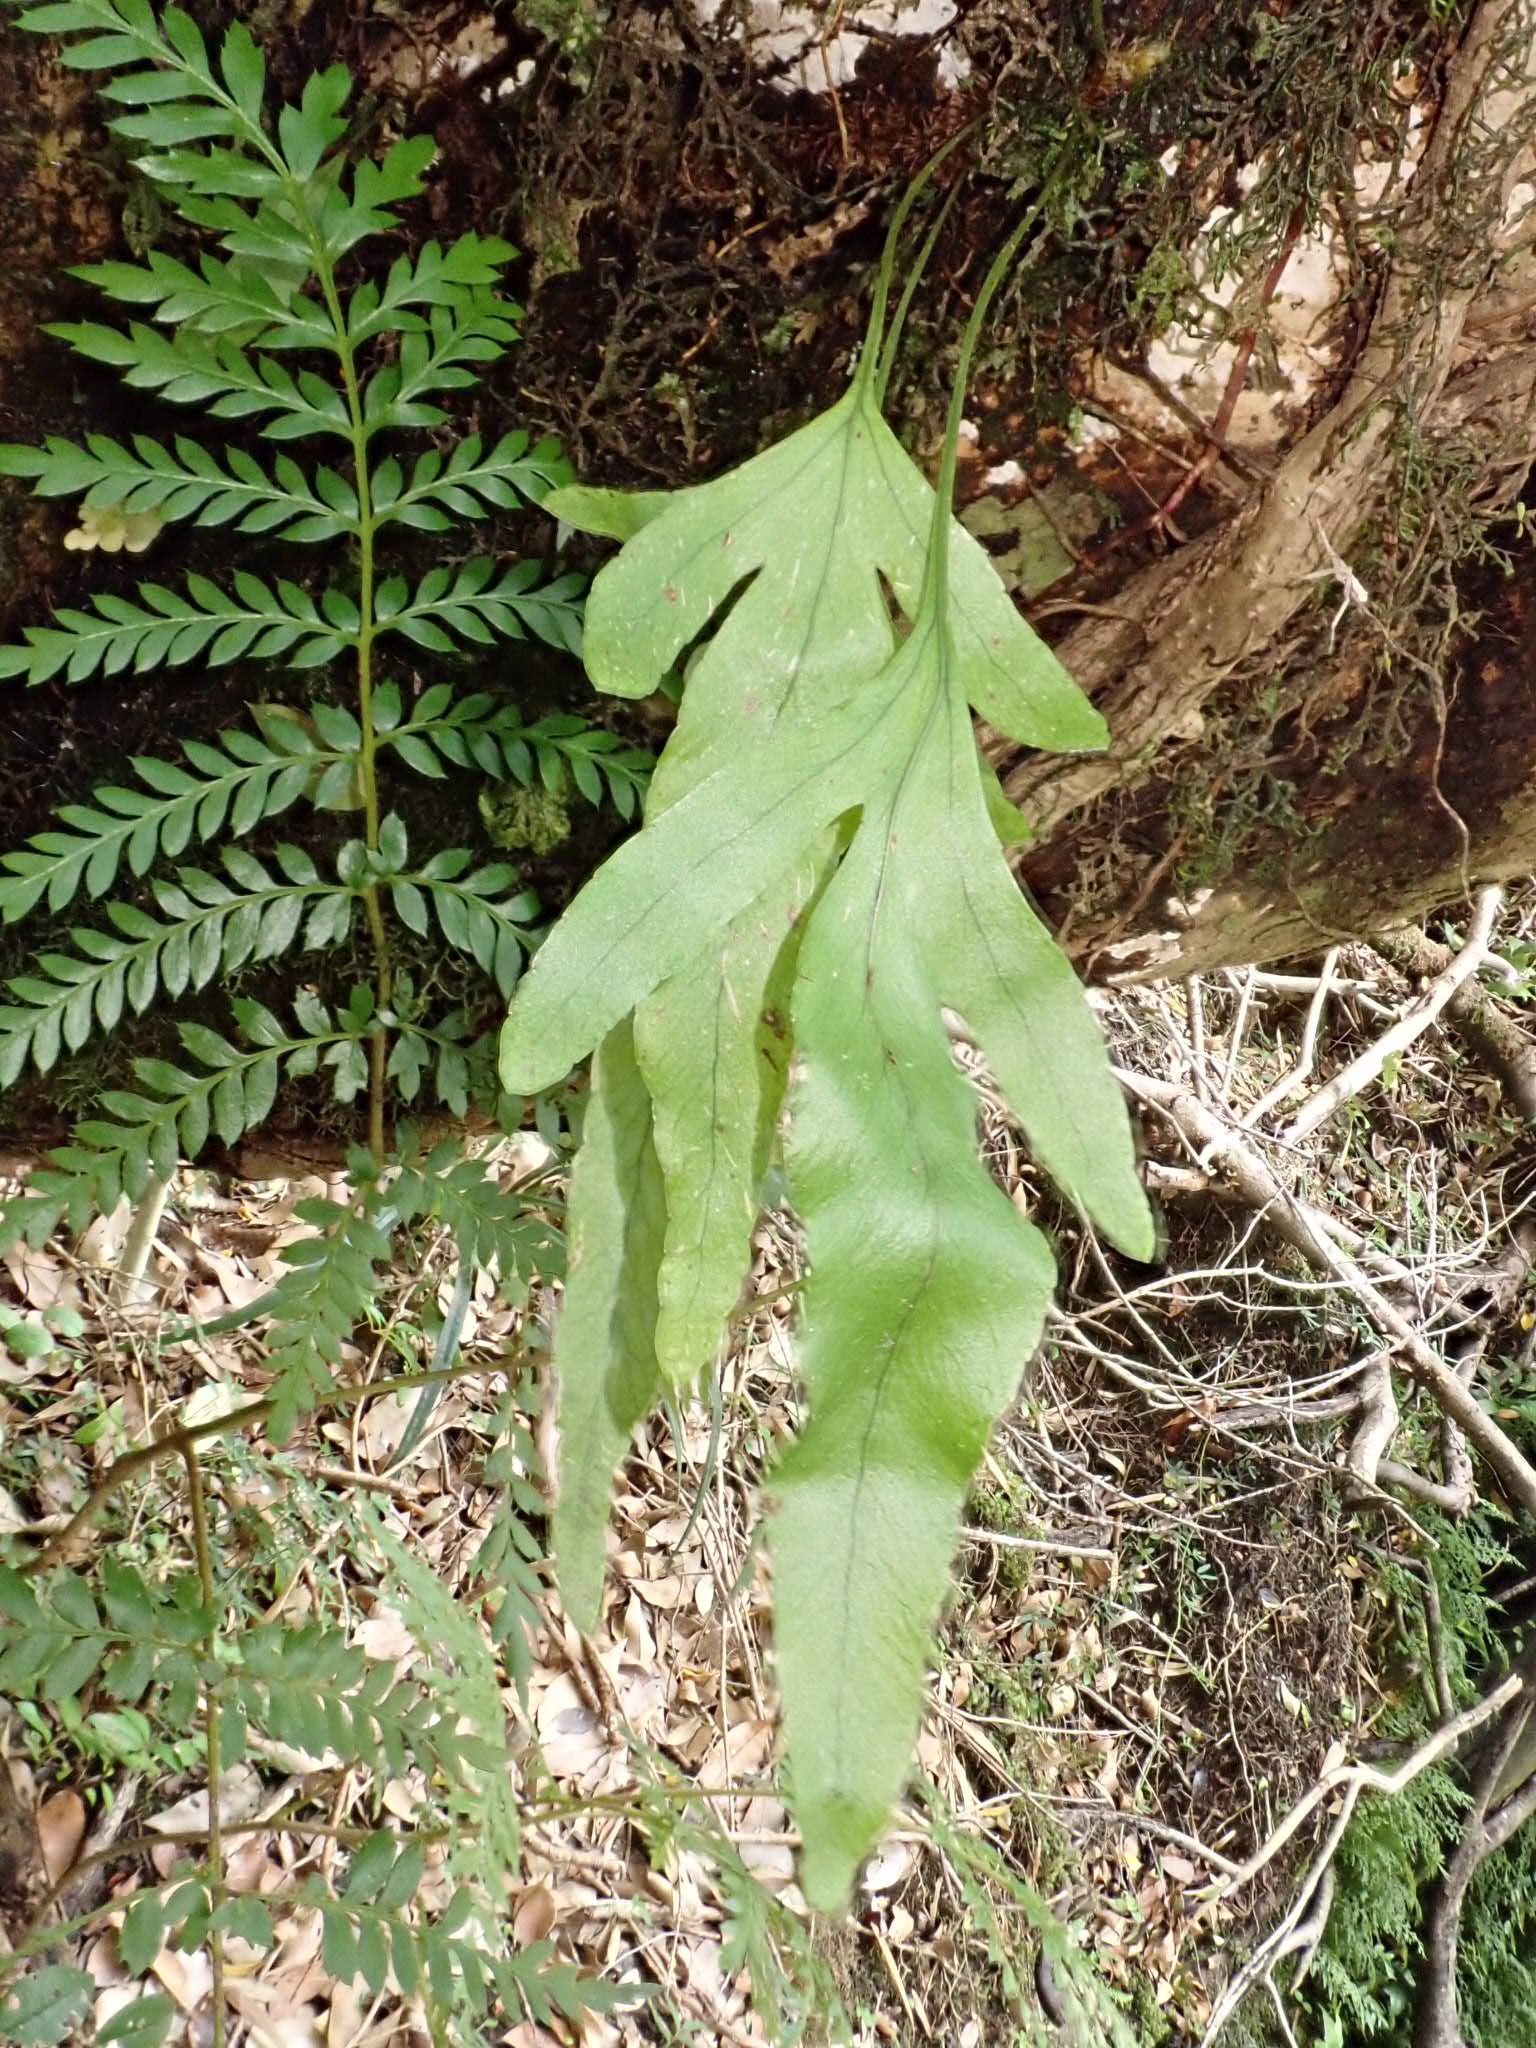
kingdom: Plantae
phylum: Tracheophyta
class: Polypodiopsida
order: Polypodiales
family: Polypodiaceae
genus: Synammia
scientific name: Synammia feuillei
